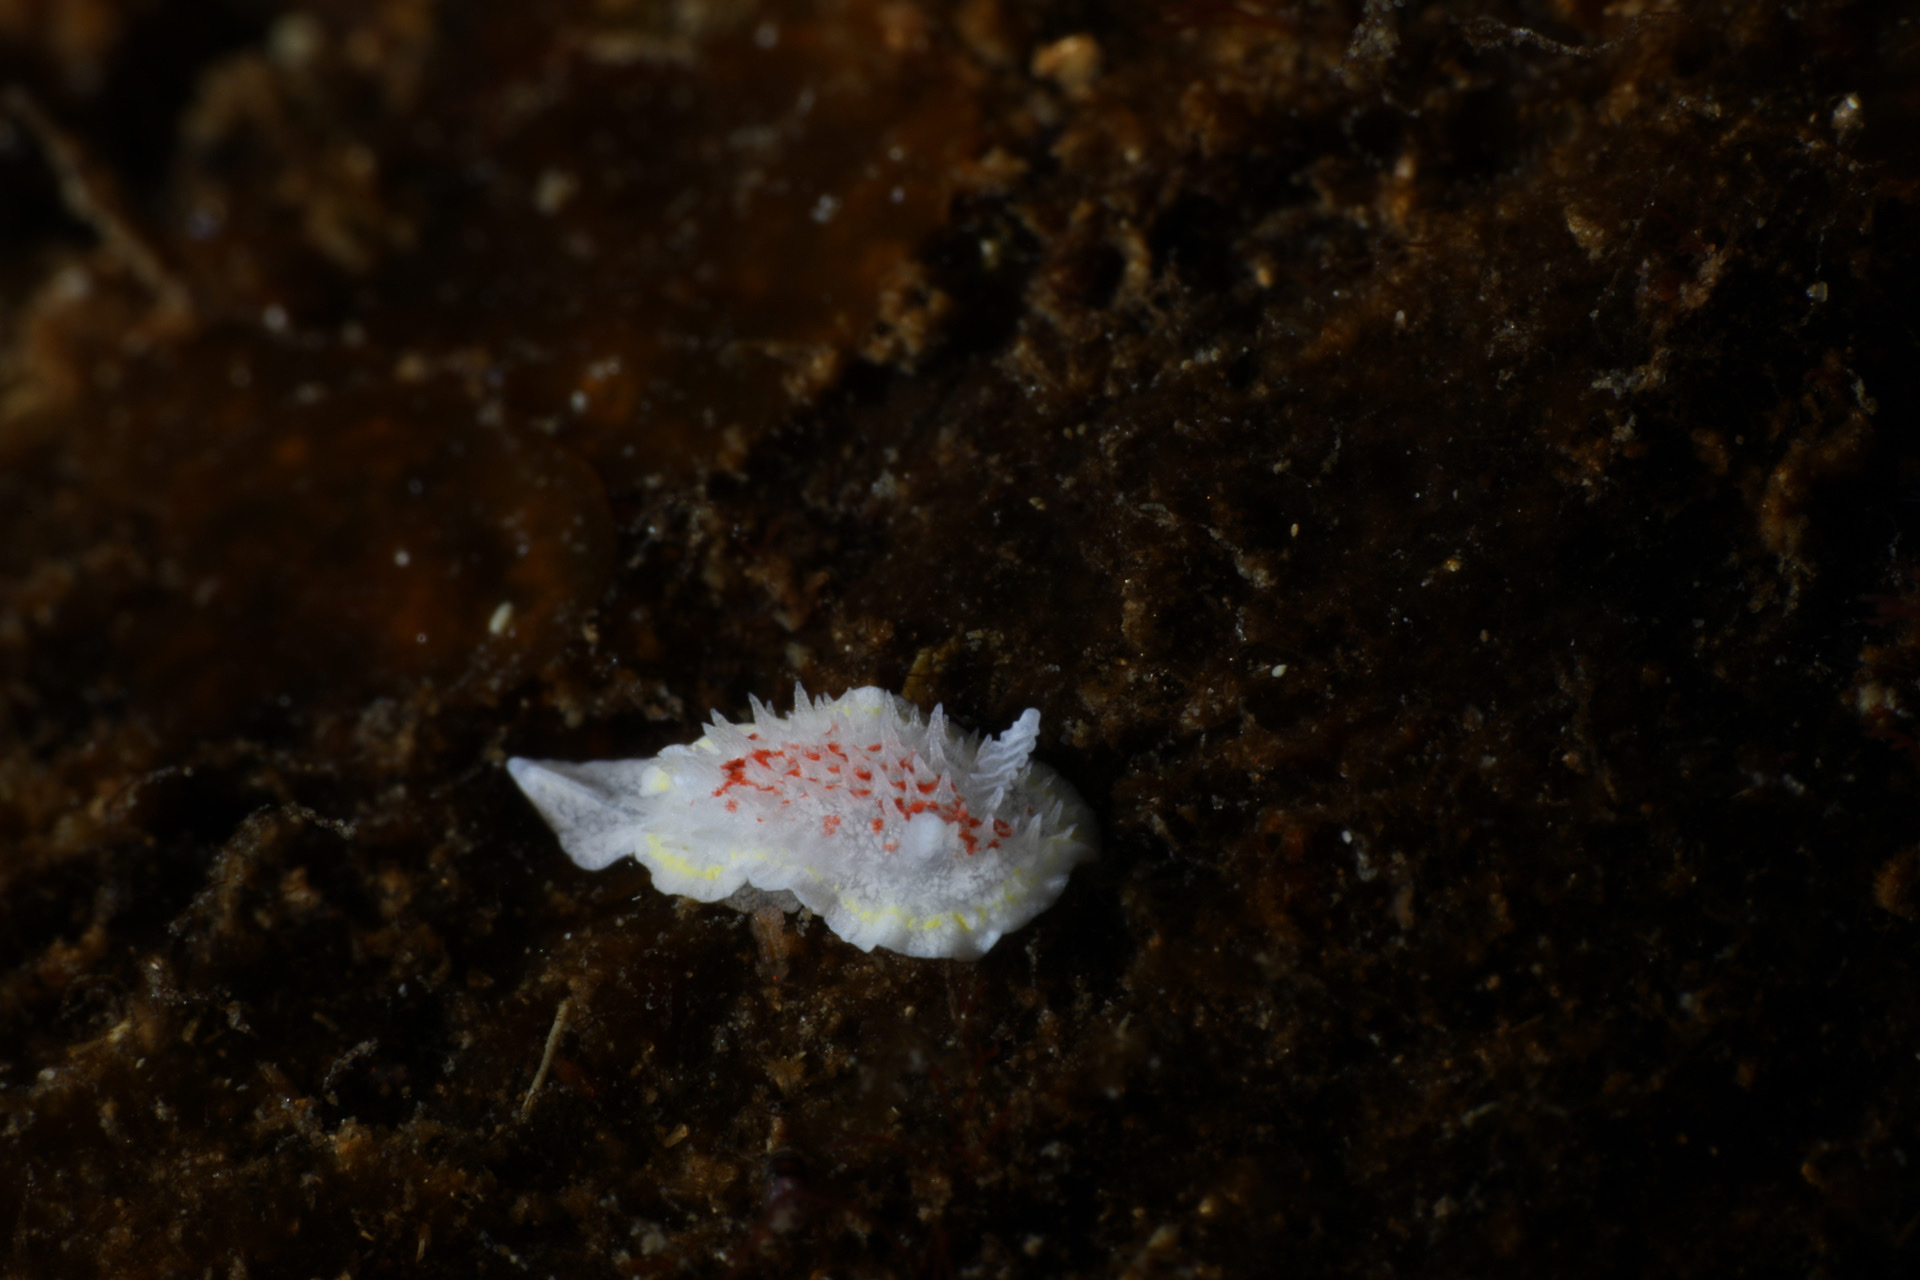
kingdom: Animalia
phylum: Mollusca
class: Gastropoda
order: Nudibranchia
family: Calycidorididae
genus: Diaphorodoris
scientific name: Diaphorodoris luteocincta
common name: Fried egg nudibranch
